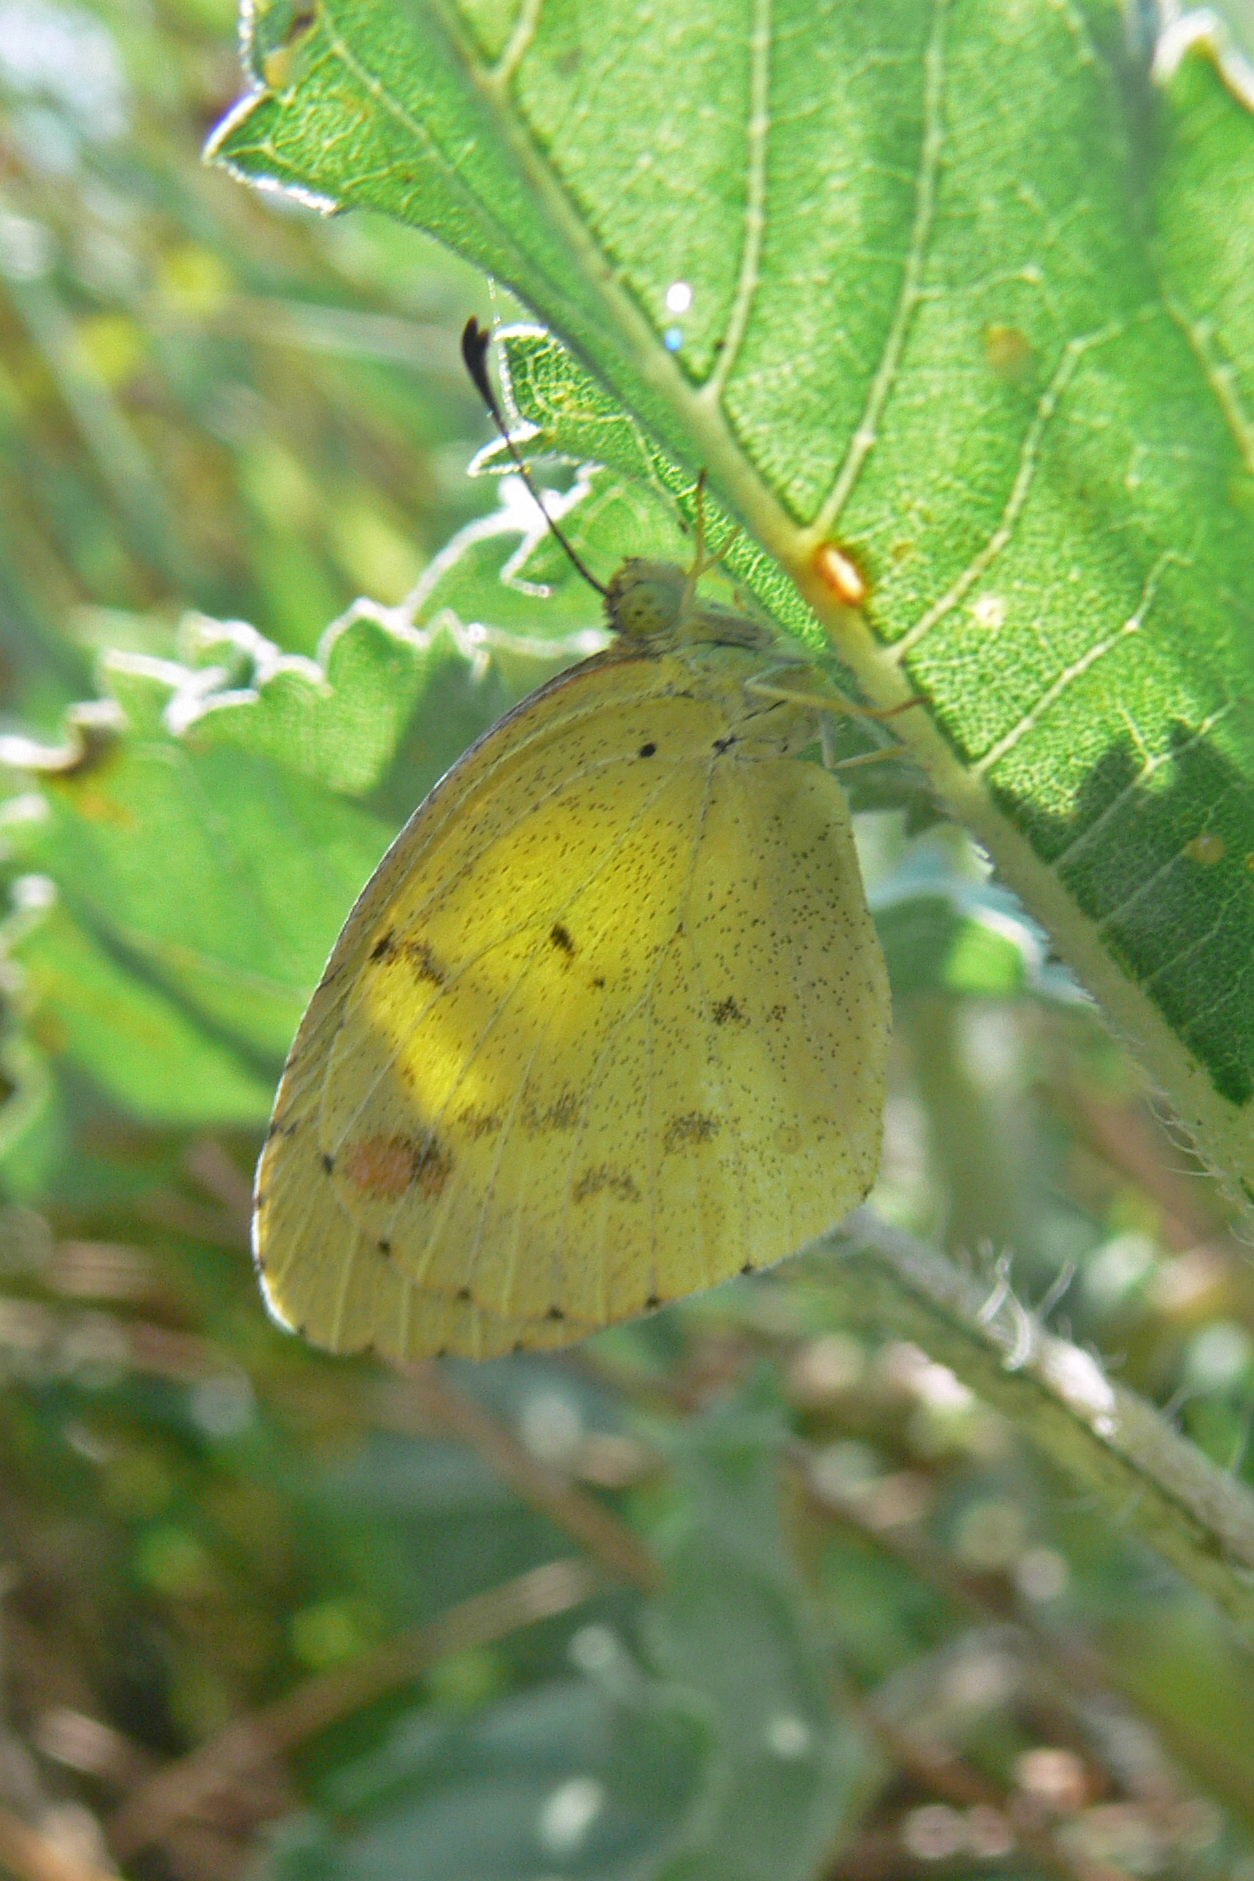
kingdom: Animalia
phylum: Arthropoda
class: Insecta
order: Lepidoptera
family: Pieridae
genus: Pyrisitia
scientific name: Pyrisitia lisa
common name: Little yellow
